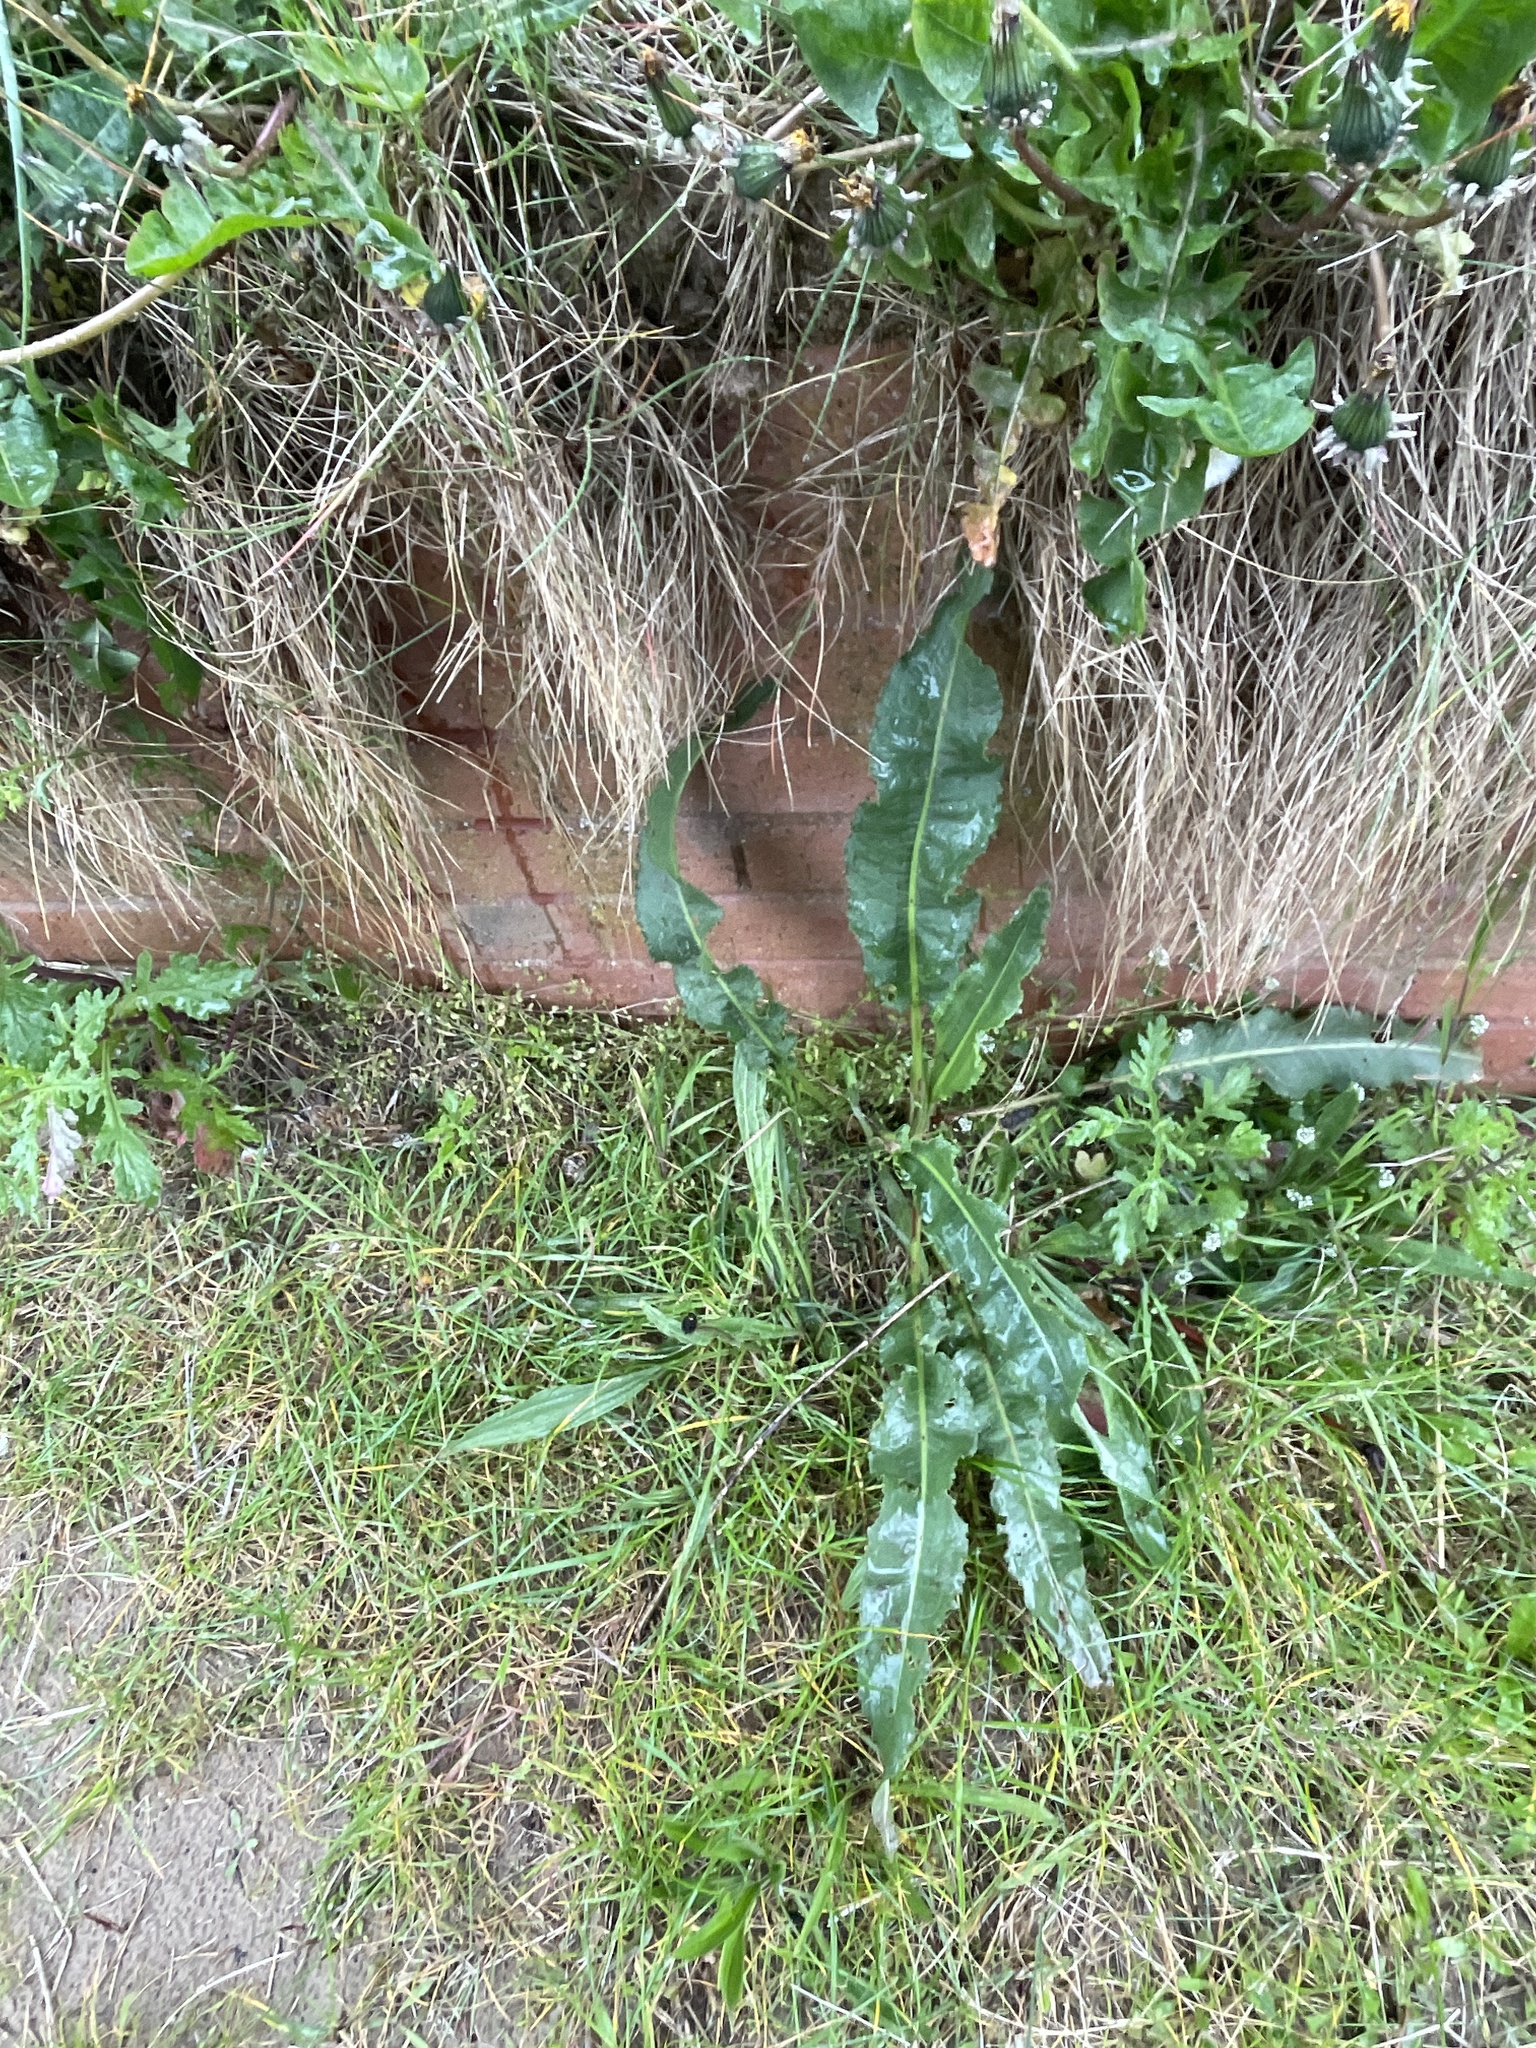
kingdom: Plantae
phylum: Tracheophyta
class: Magnoliopsida
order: Caryophyllales
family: Polygonaceae
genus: Rumex
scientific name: Rumex crispus
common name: Curled dock
